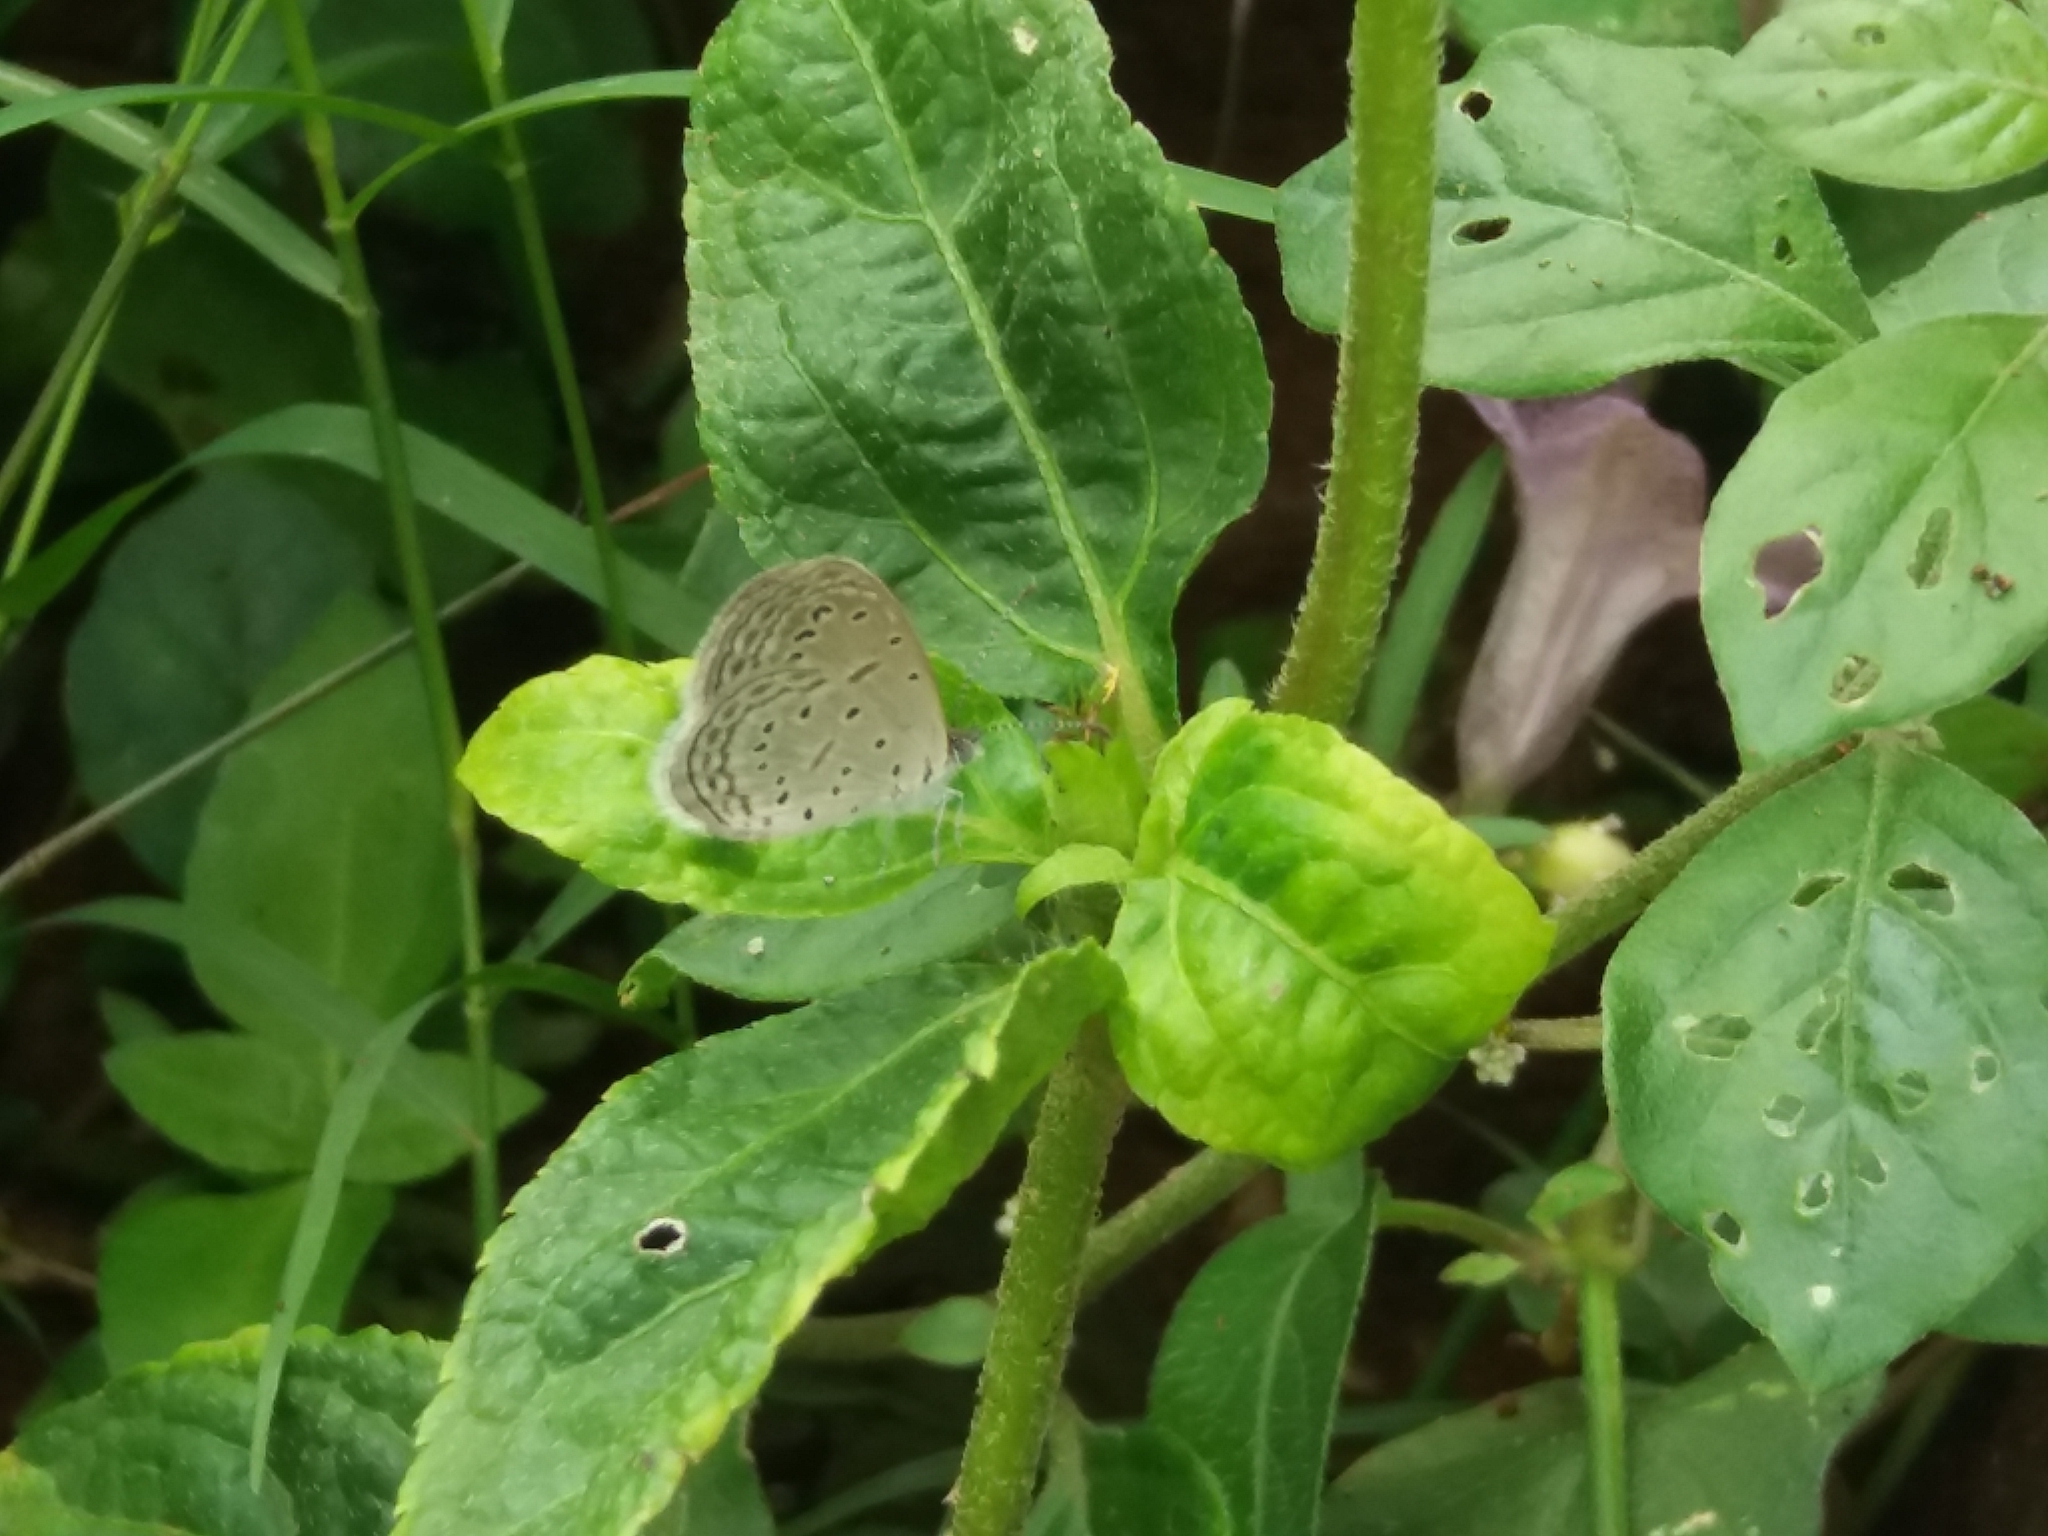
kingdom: Animalia
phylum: Arthropoda
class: Insecta
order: Lepidoptera
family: Lycaenidae
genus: Zizula
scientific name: Zizula hylax
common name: Gaika blue
